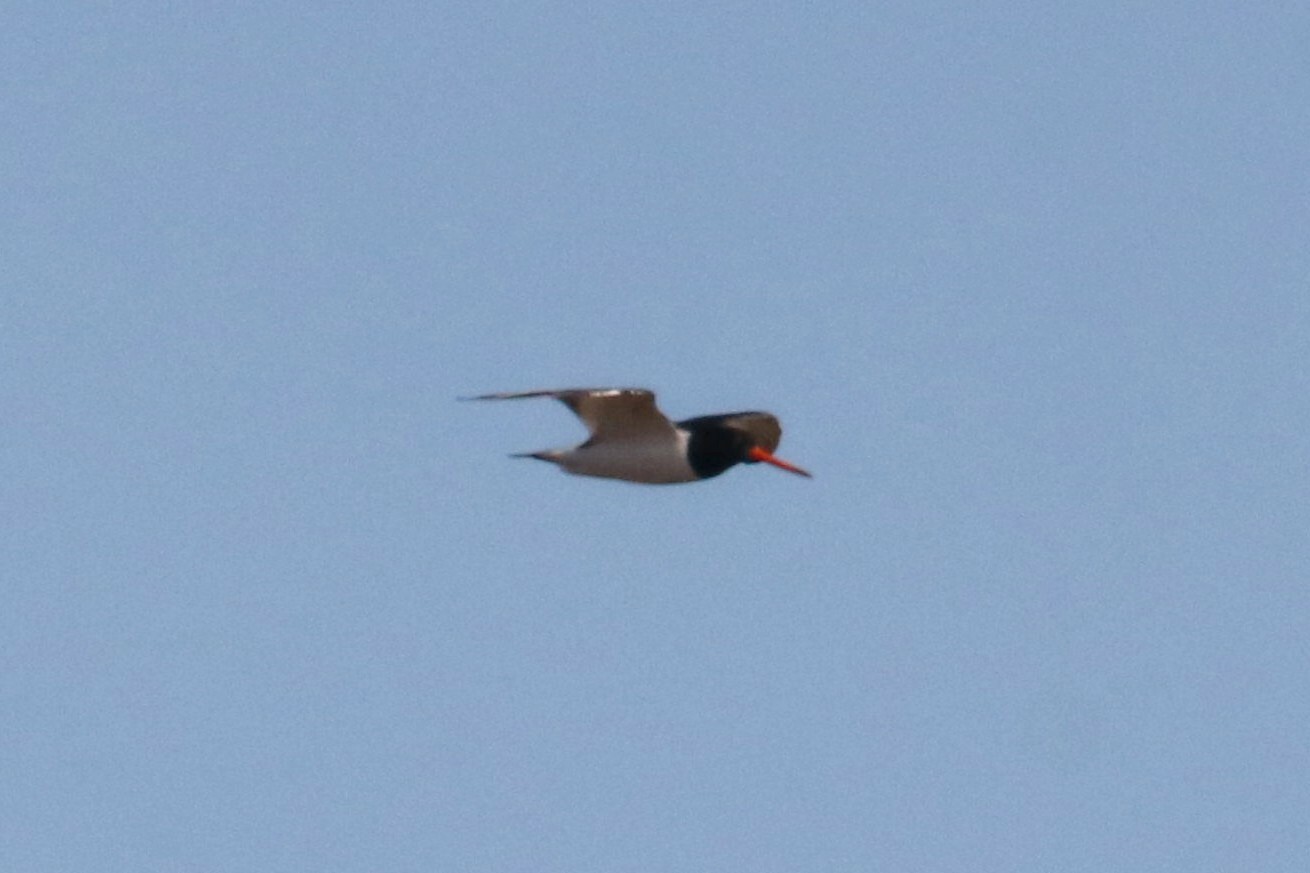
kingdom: Animalia
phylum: Chordata
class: Aves
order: Charadriiformes
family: Haematopodidae
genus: Haematopus
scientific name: Haematopus ostralegus
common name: Eurasian oystercatcher
